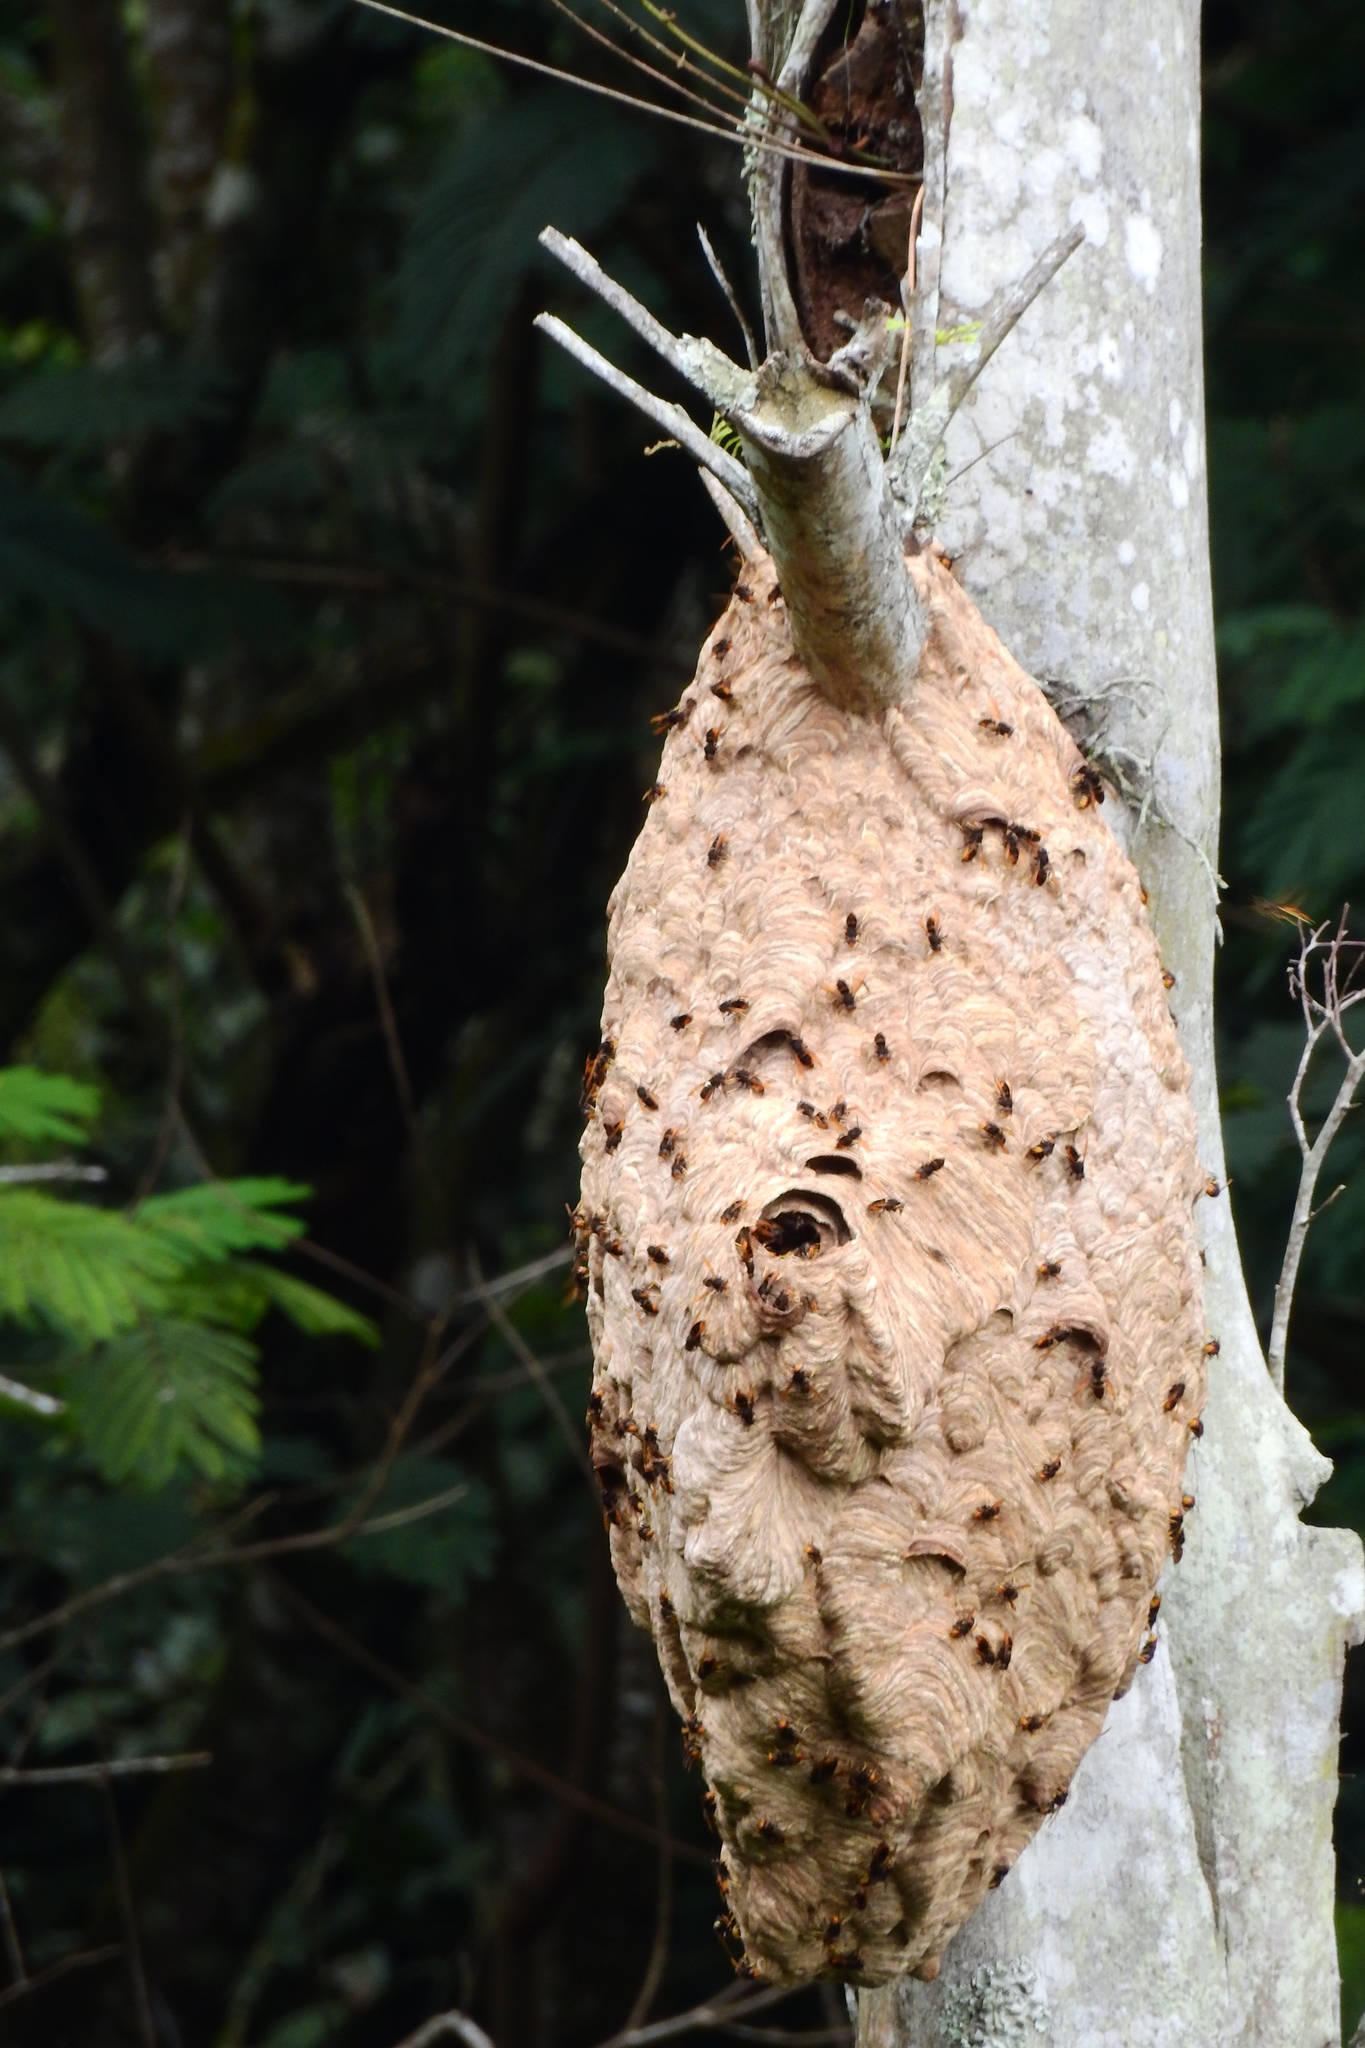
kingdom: Animalia
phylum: Arthropoda
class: Insecta
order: Hymenoptera
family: Vespidae
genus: Vespa
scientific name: Vespa velutina
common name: Asian hornet
